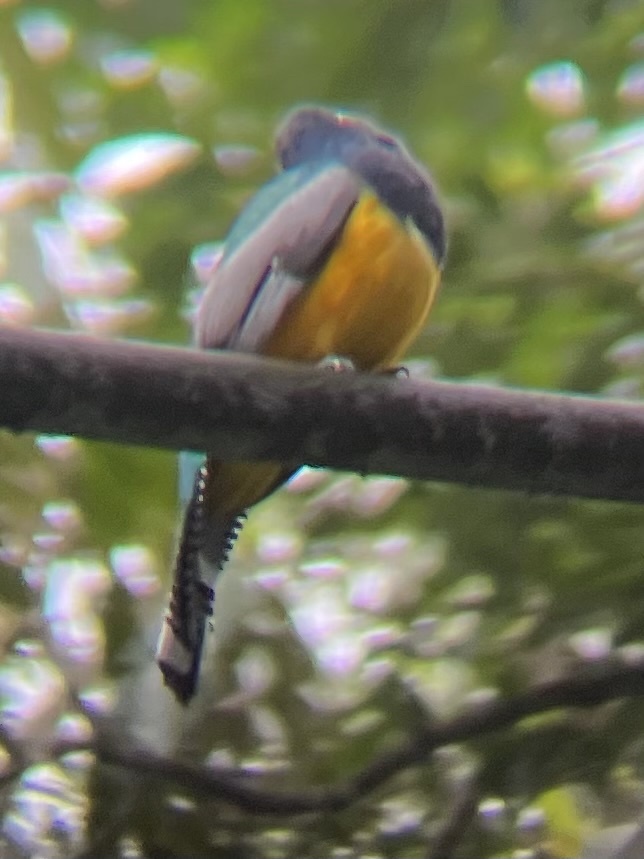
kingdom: Animalia
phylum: Chordata
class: Aves
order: Trogoniformes
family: Trogonidae
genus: Trogon
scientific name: Trogon caligatus
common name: Gartered trogon
